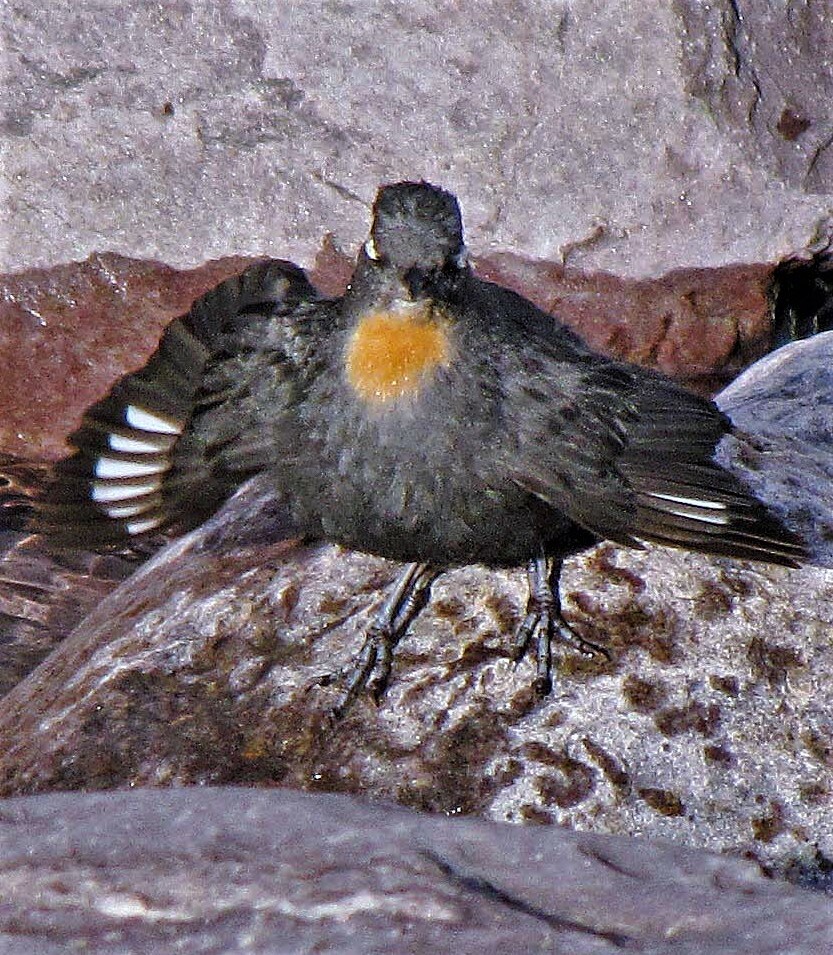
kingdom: Animalia
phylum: Chordata
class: Aves
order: Passeriformes
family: Cinclidae
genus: Cinclus
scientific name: Cinclus schulzii
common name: Rufous-throated dipper
